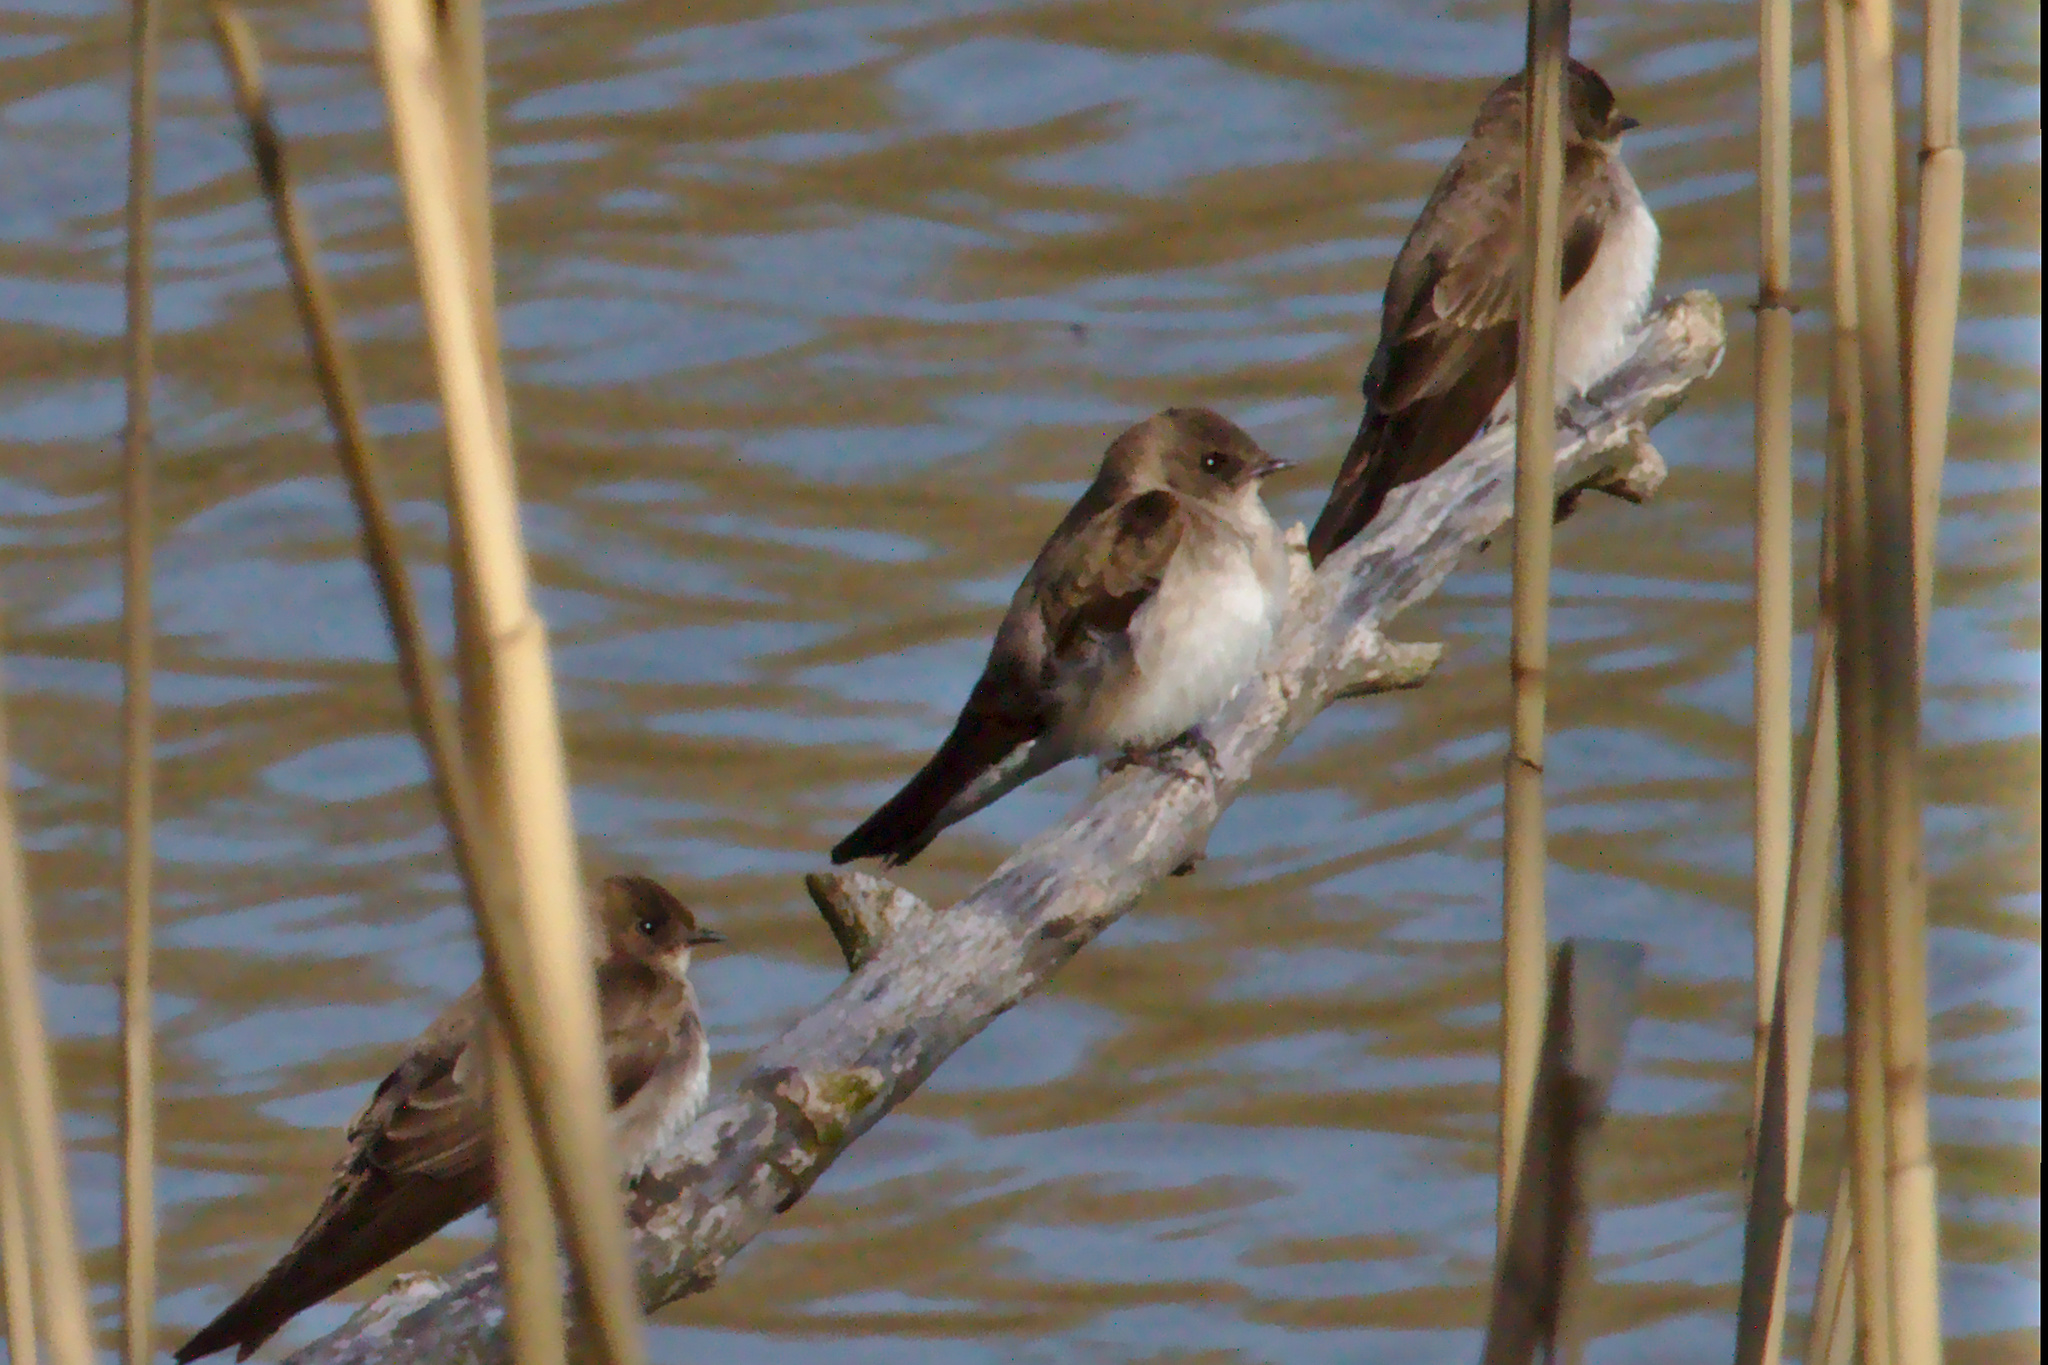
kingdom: Animalia
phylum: Chordata
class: Aves
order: Passeriformes
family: Hirundinidae
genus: Stelgidopteryx
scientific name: Stelgidopteryx serripennis
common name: Northern rough-winged swallow
